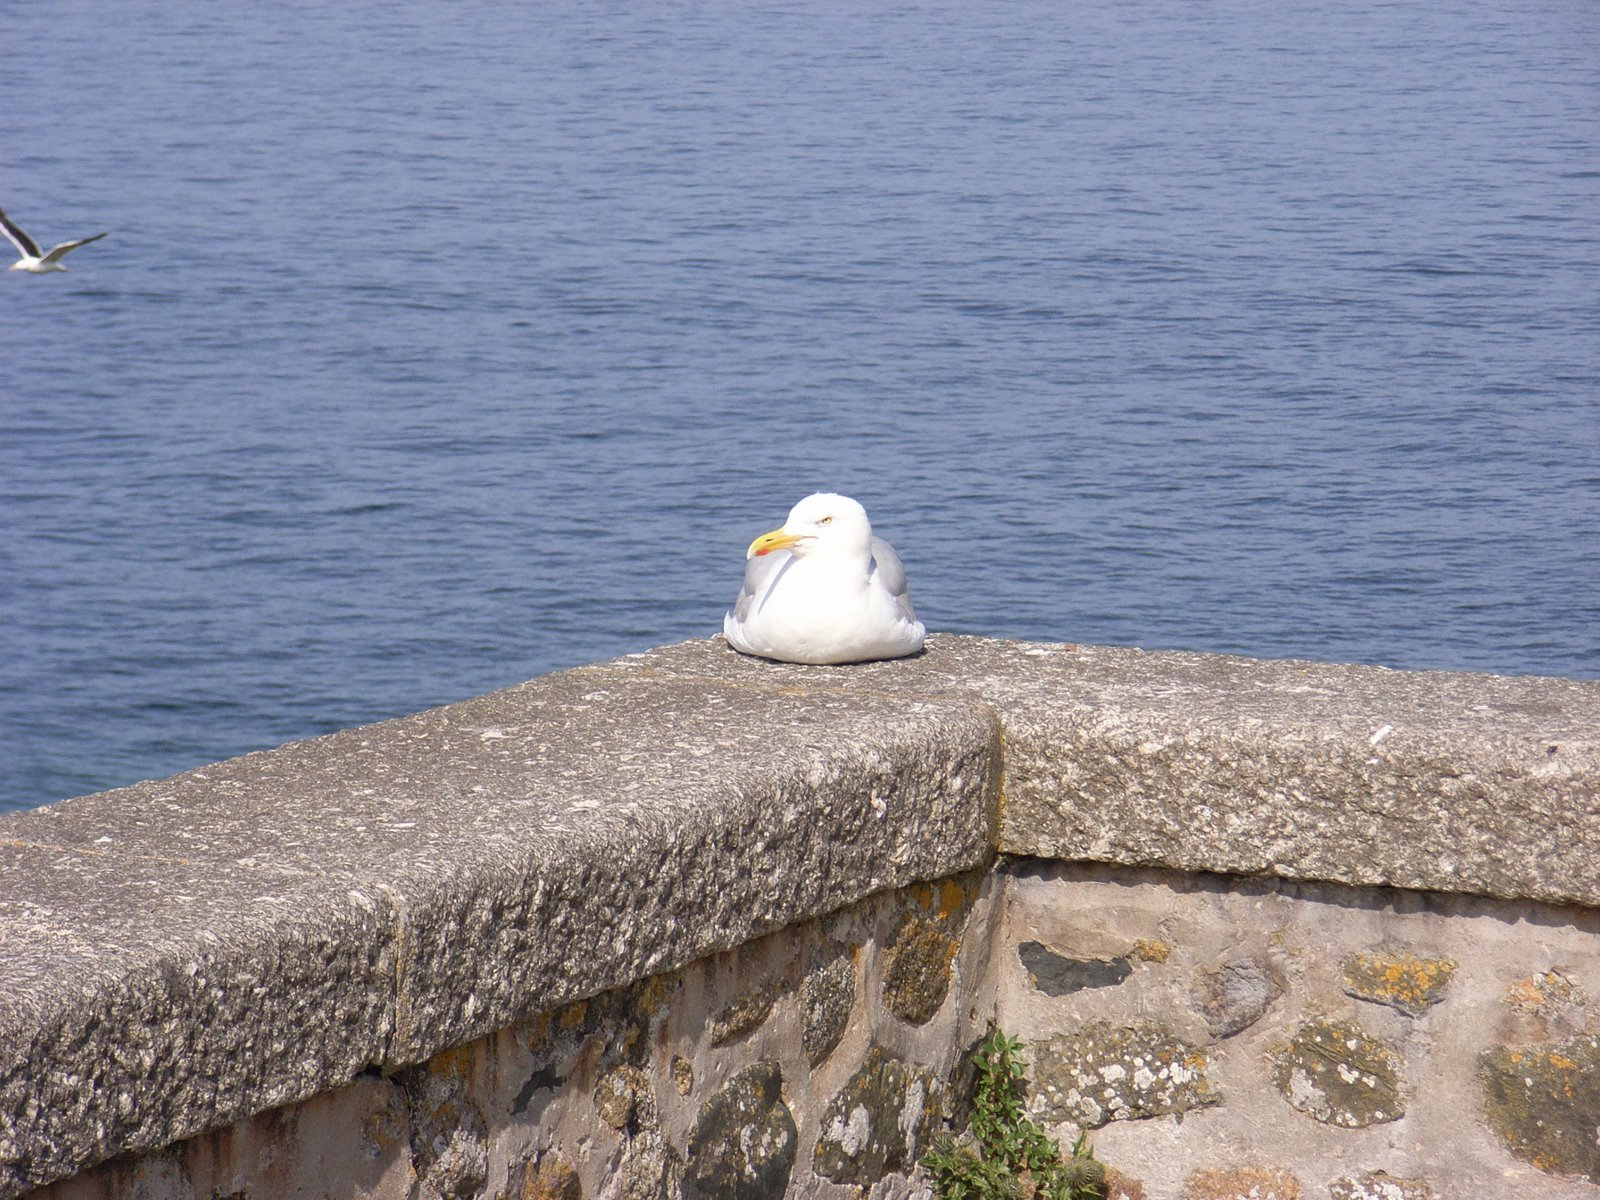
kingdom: Animalia
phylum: Chordata
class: Aves
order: Charadriiformes
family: Laridae
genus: Larus
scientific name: Larus argentatus
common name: Herring gull
